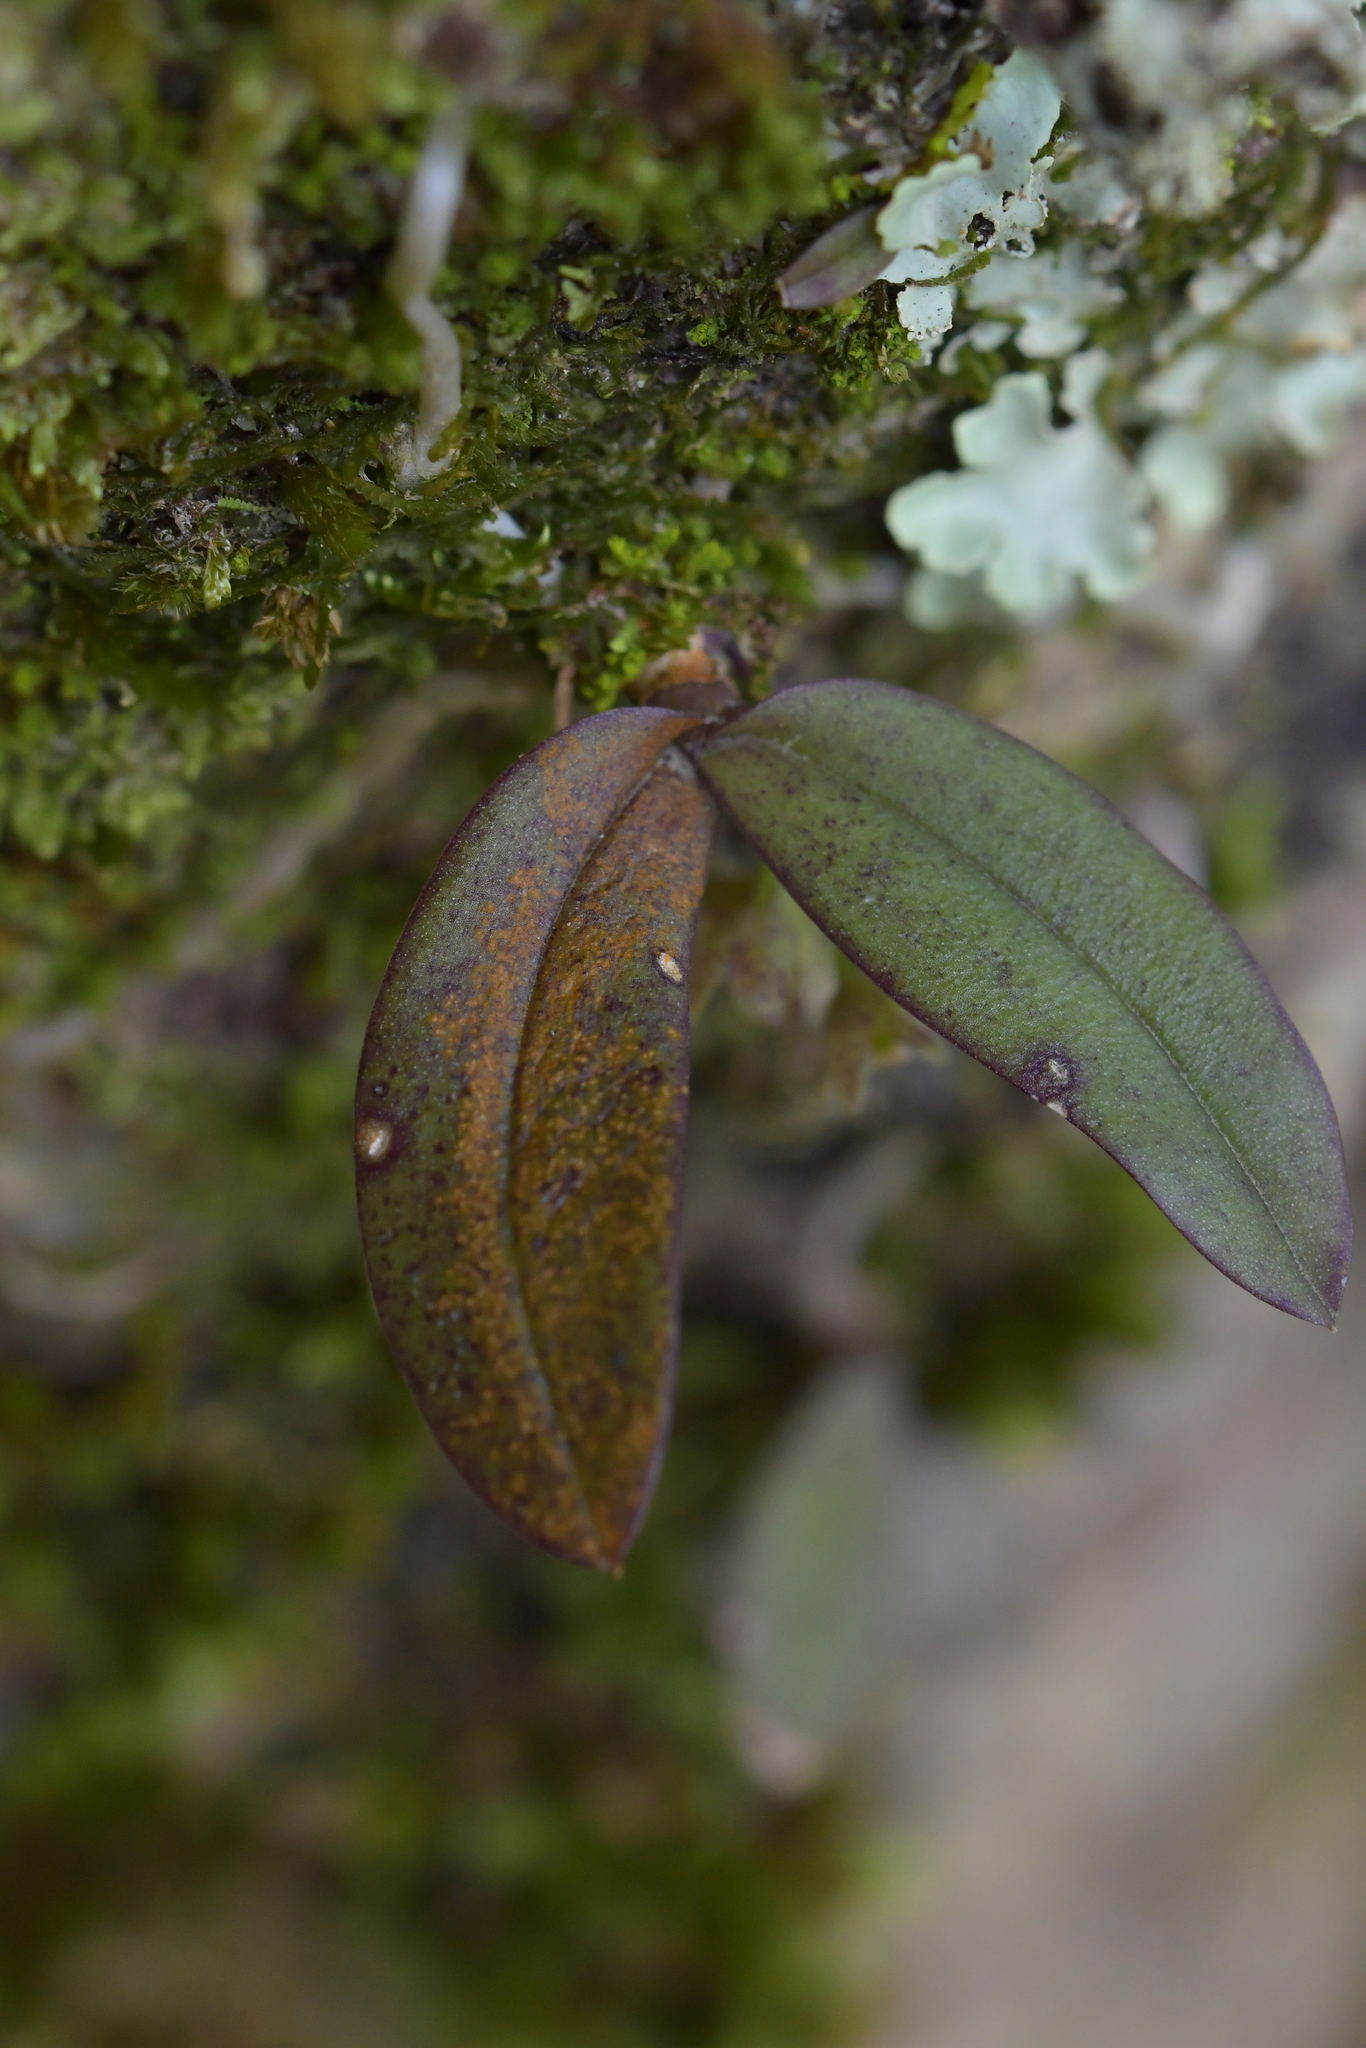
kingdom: Plantae
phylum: Tracheophyta
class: Liliopsida
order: Asparagales
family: Orchidaceae
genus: Drymoanthus
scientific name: Drymoanthus adversus
